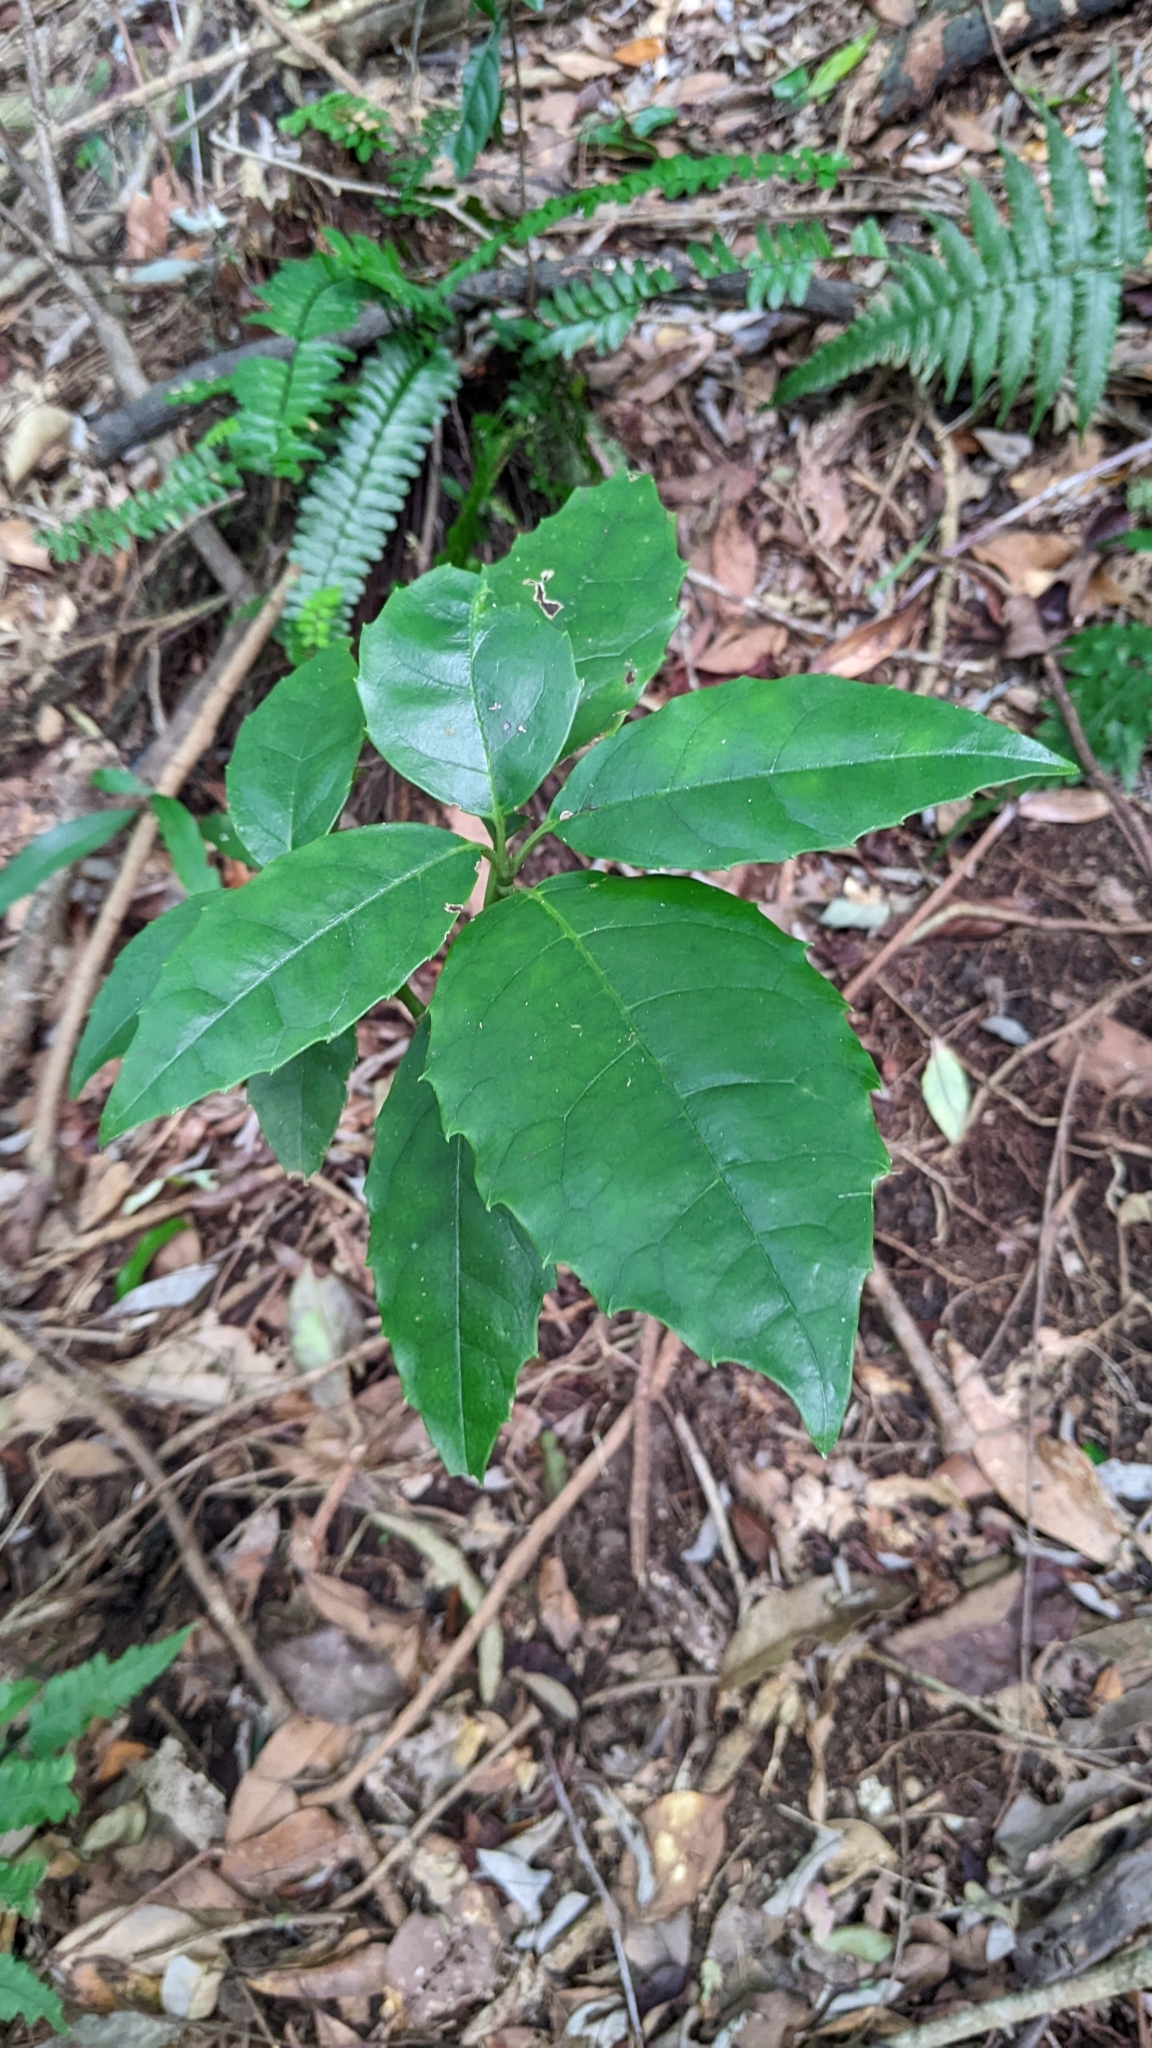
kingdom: Plantae
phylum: Tracheophyta
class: Magnoliopsida
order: Garryales
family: Garryaceae
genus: Aucuba
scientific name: Aucuba japonica
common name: Spotted-laurel
